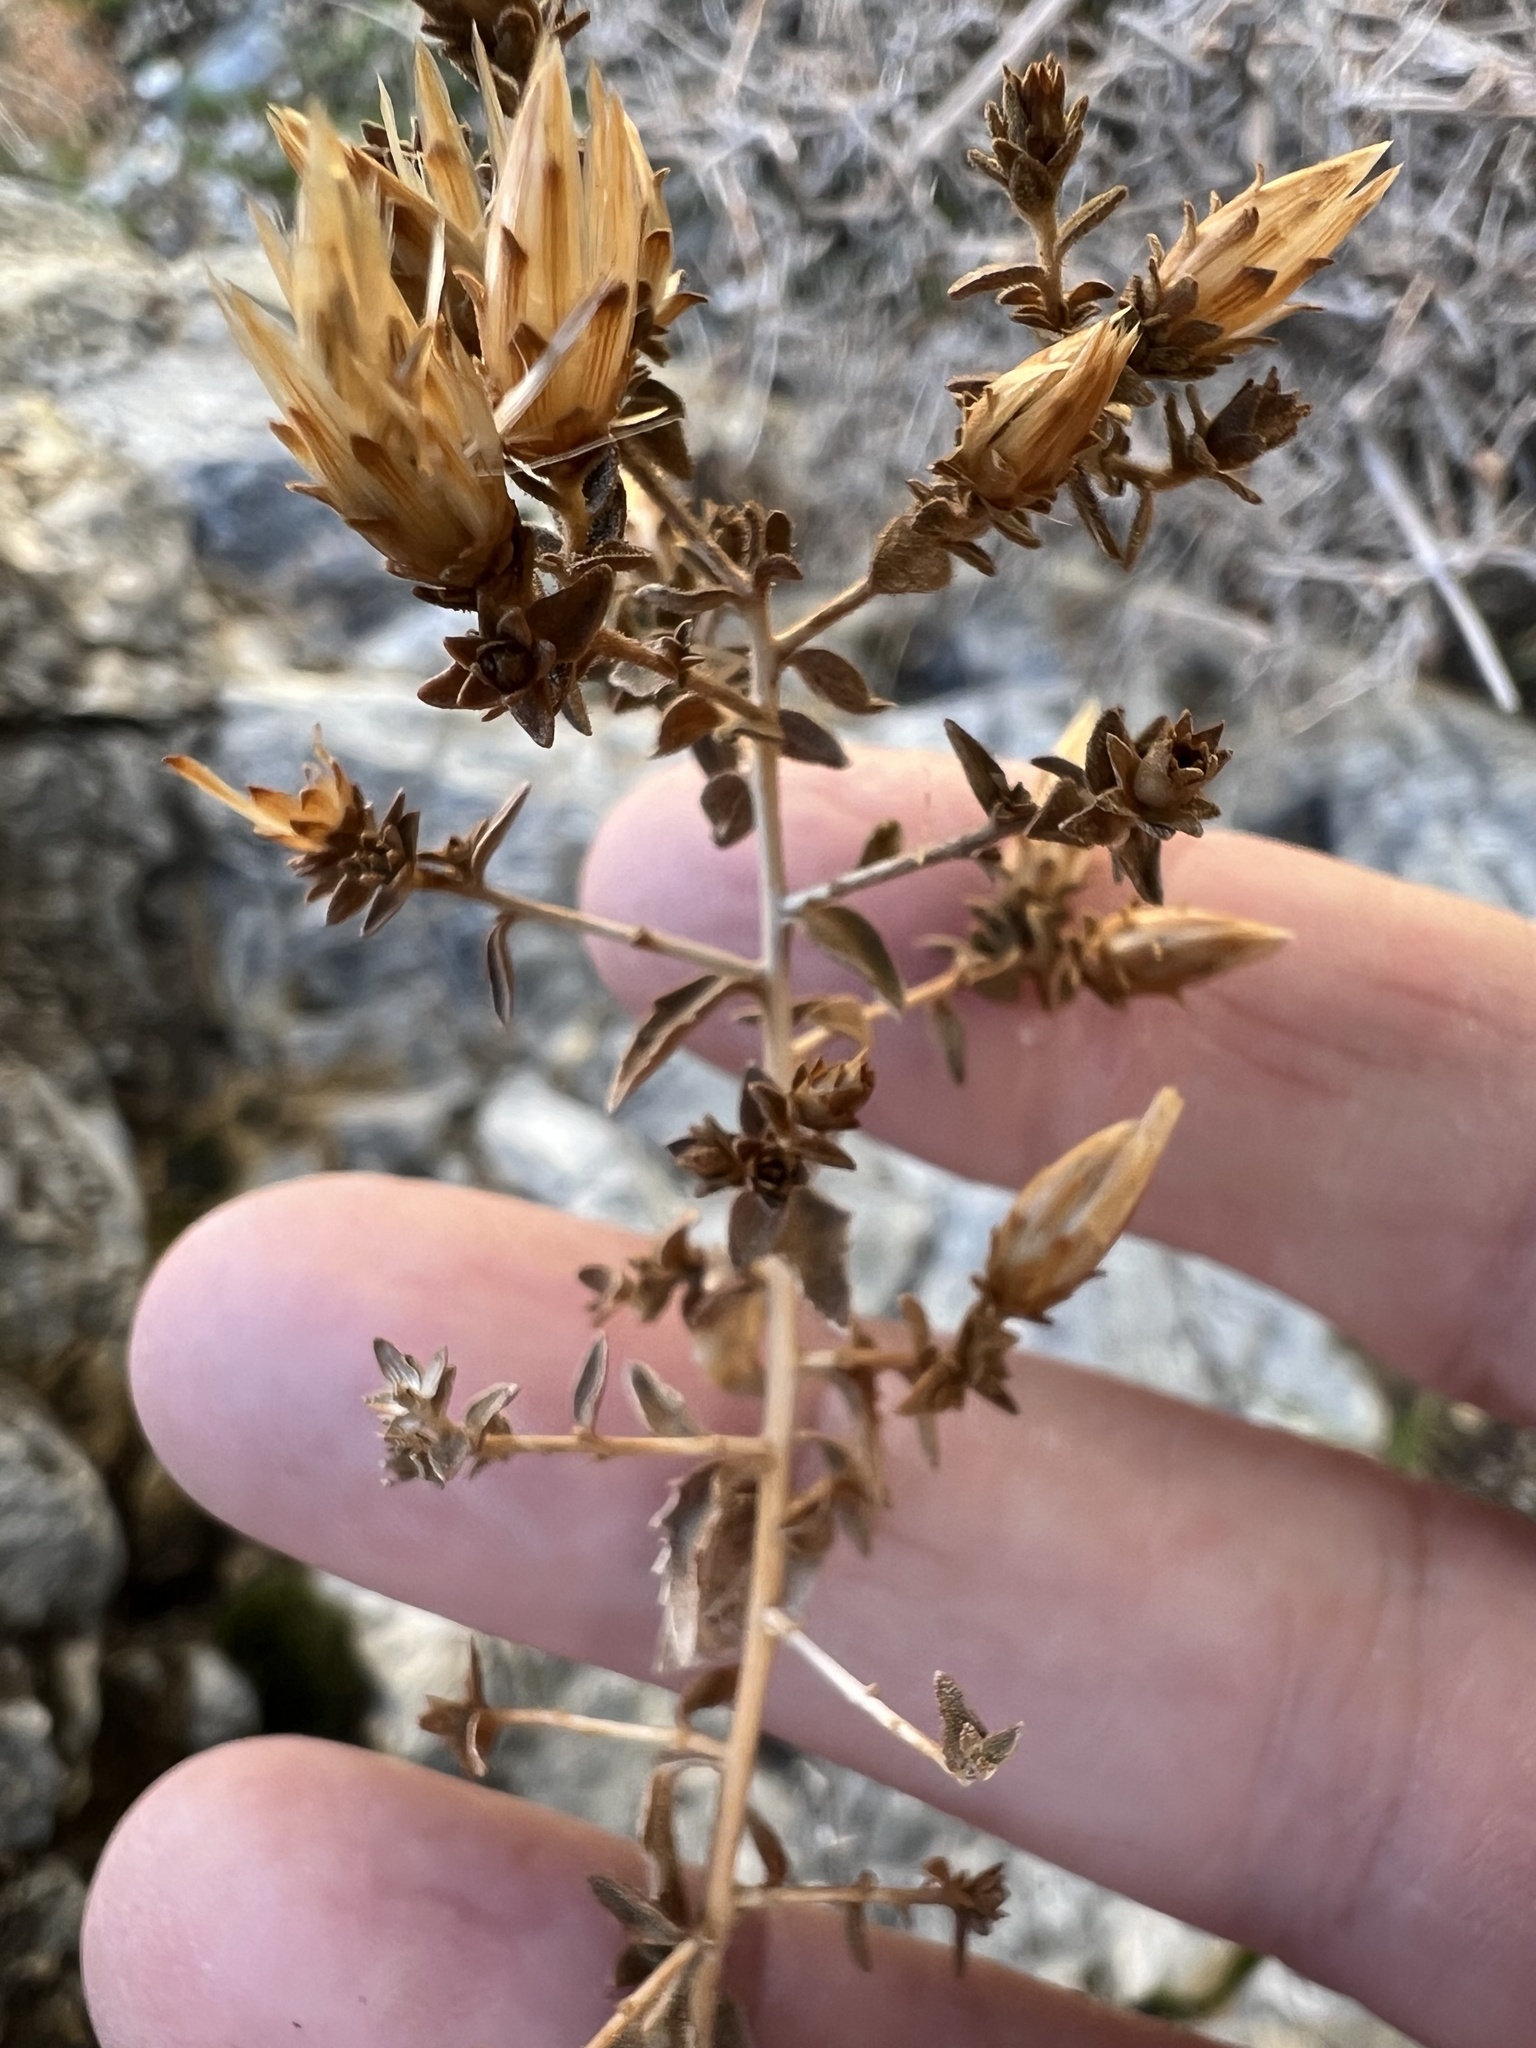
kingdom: Plantae
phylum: Tracheophyta
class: Magnoliopsida
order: Asterales
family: Asteraceae
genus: Brickellia
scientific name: Brickellia microphylla
